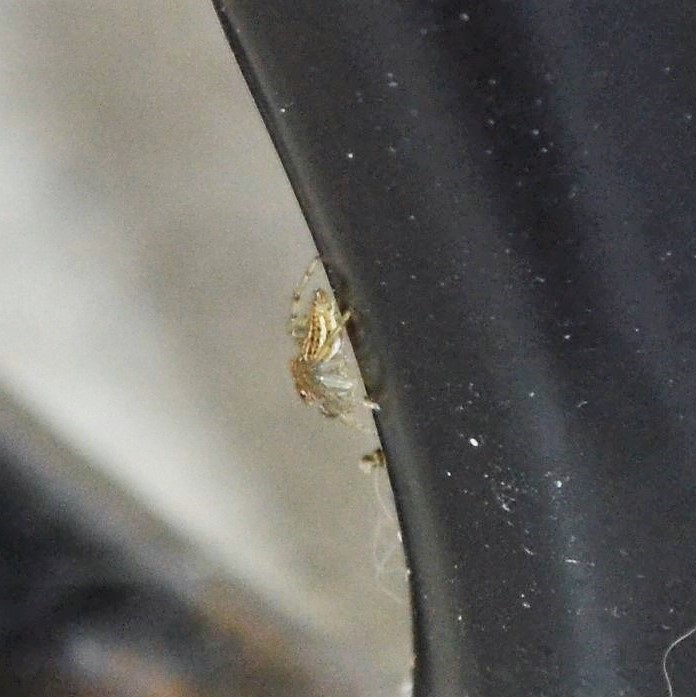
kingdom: Animalia
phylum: Arthropoda
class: Arachnida
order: Araneae
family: Salticidae
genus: Colonus
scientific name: Colonus sylvanus
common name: Jumping spiders
